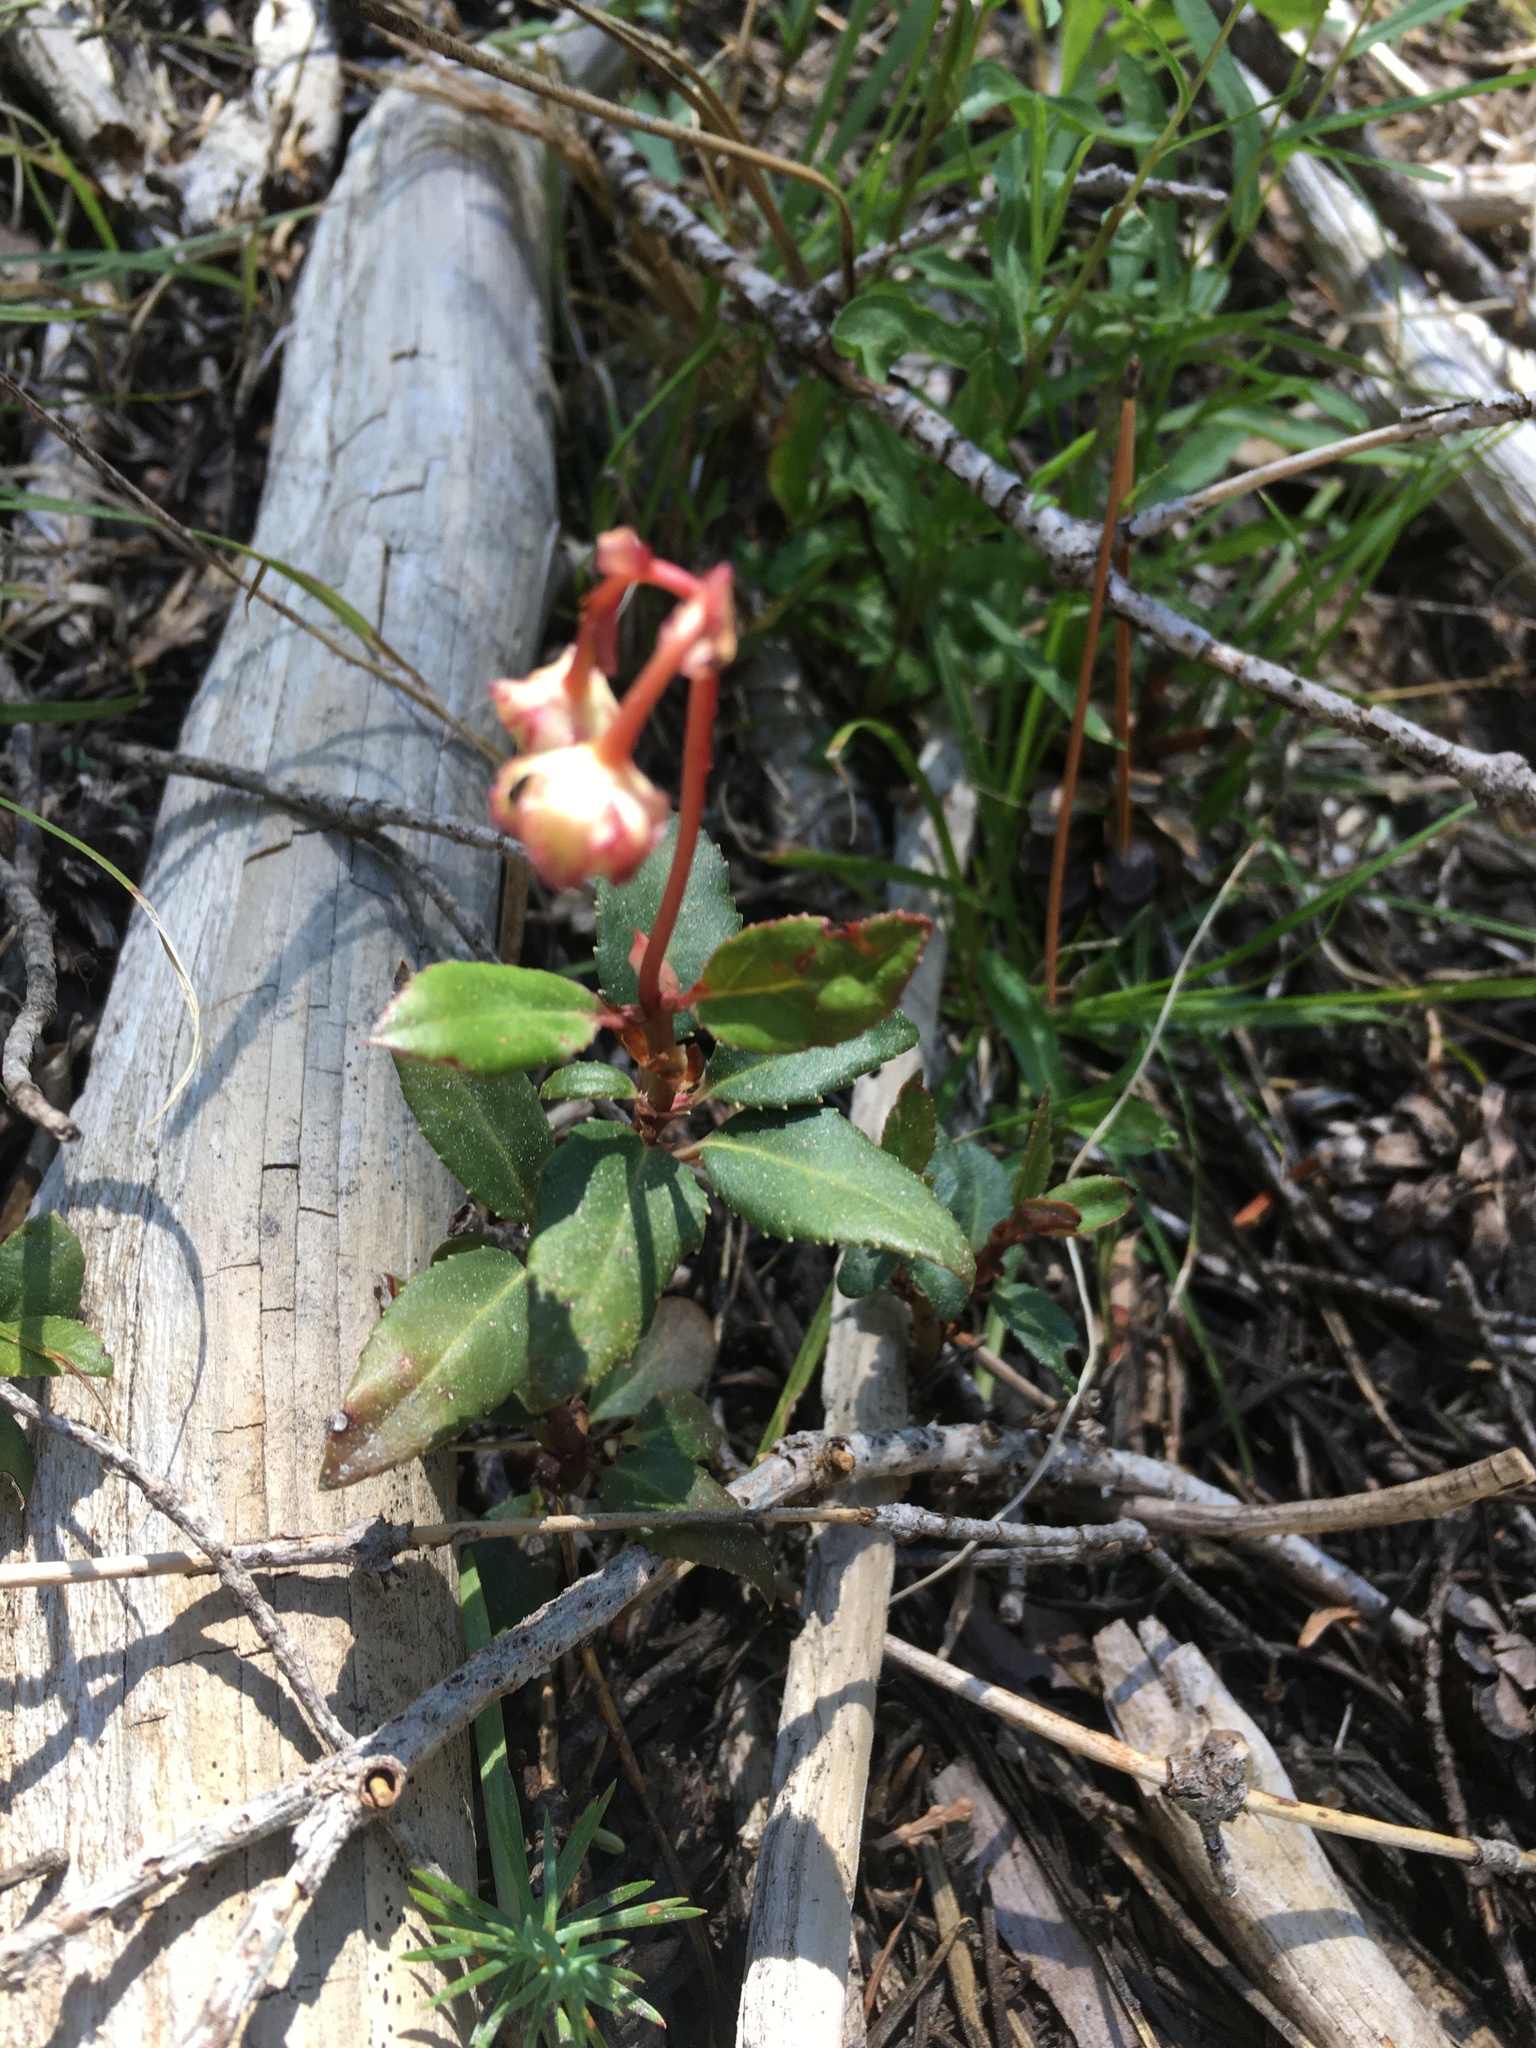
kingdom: Plantae
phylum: Tracheophyta
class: Magnoliopsida
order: Ericales
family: Ericaceae
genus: Chimaphila
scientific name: Chimaphila menziesii
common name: Menzies' pipsissewa
